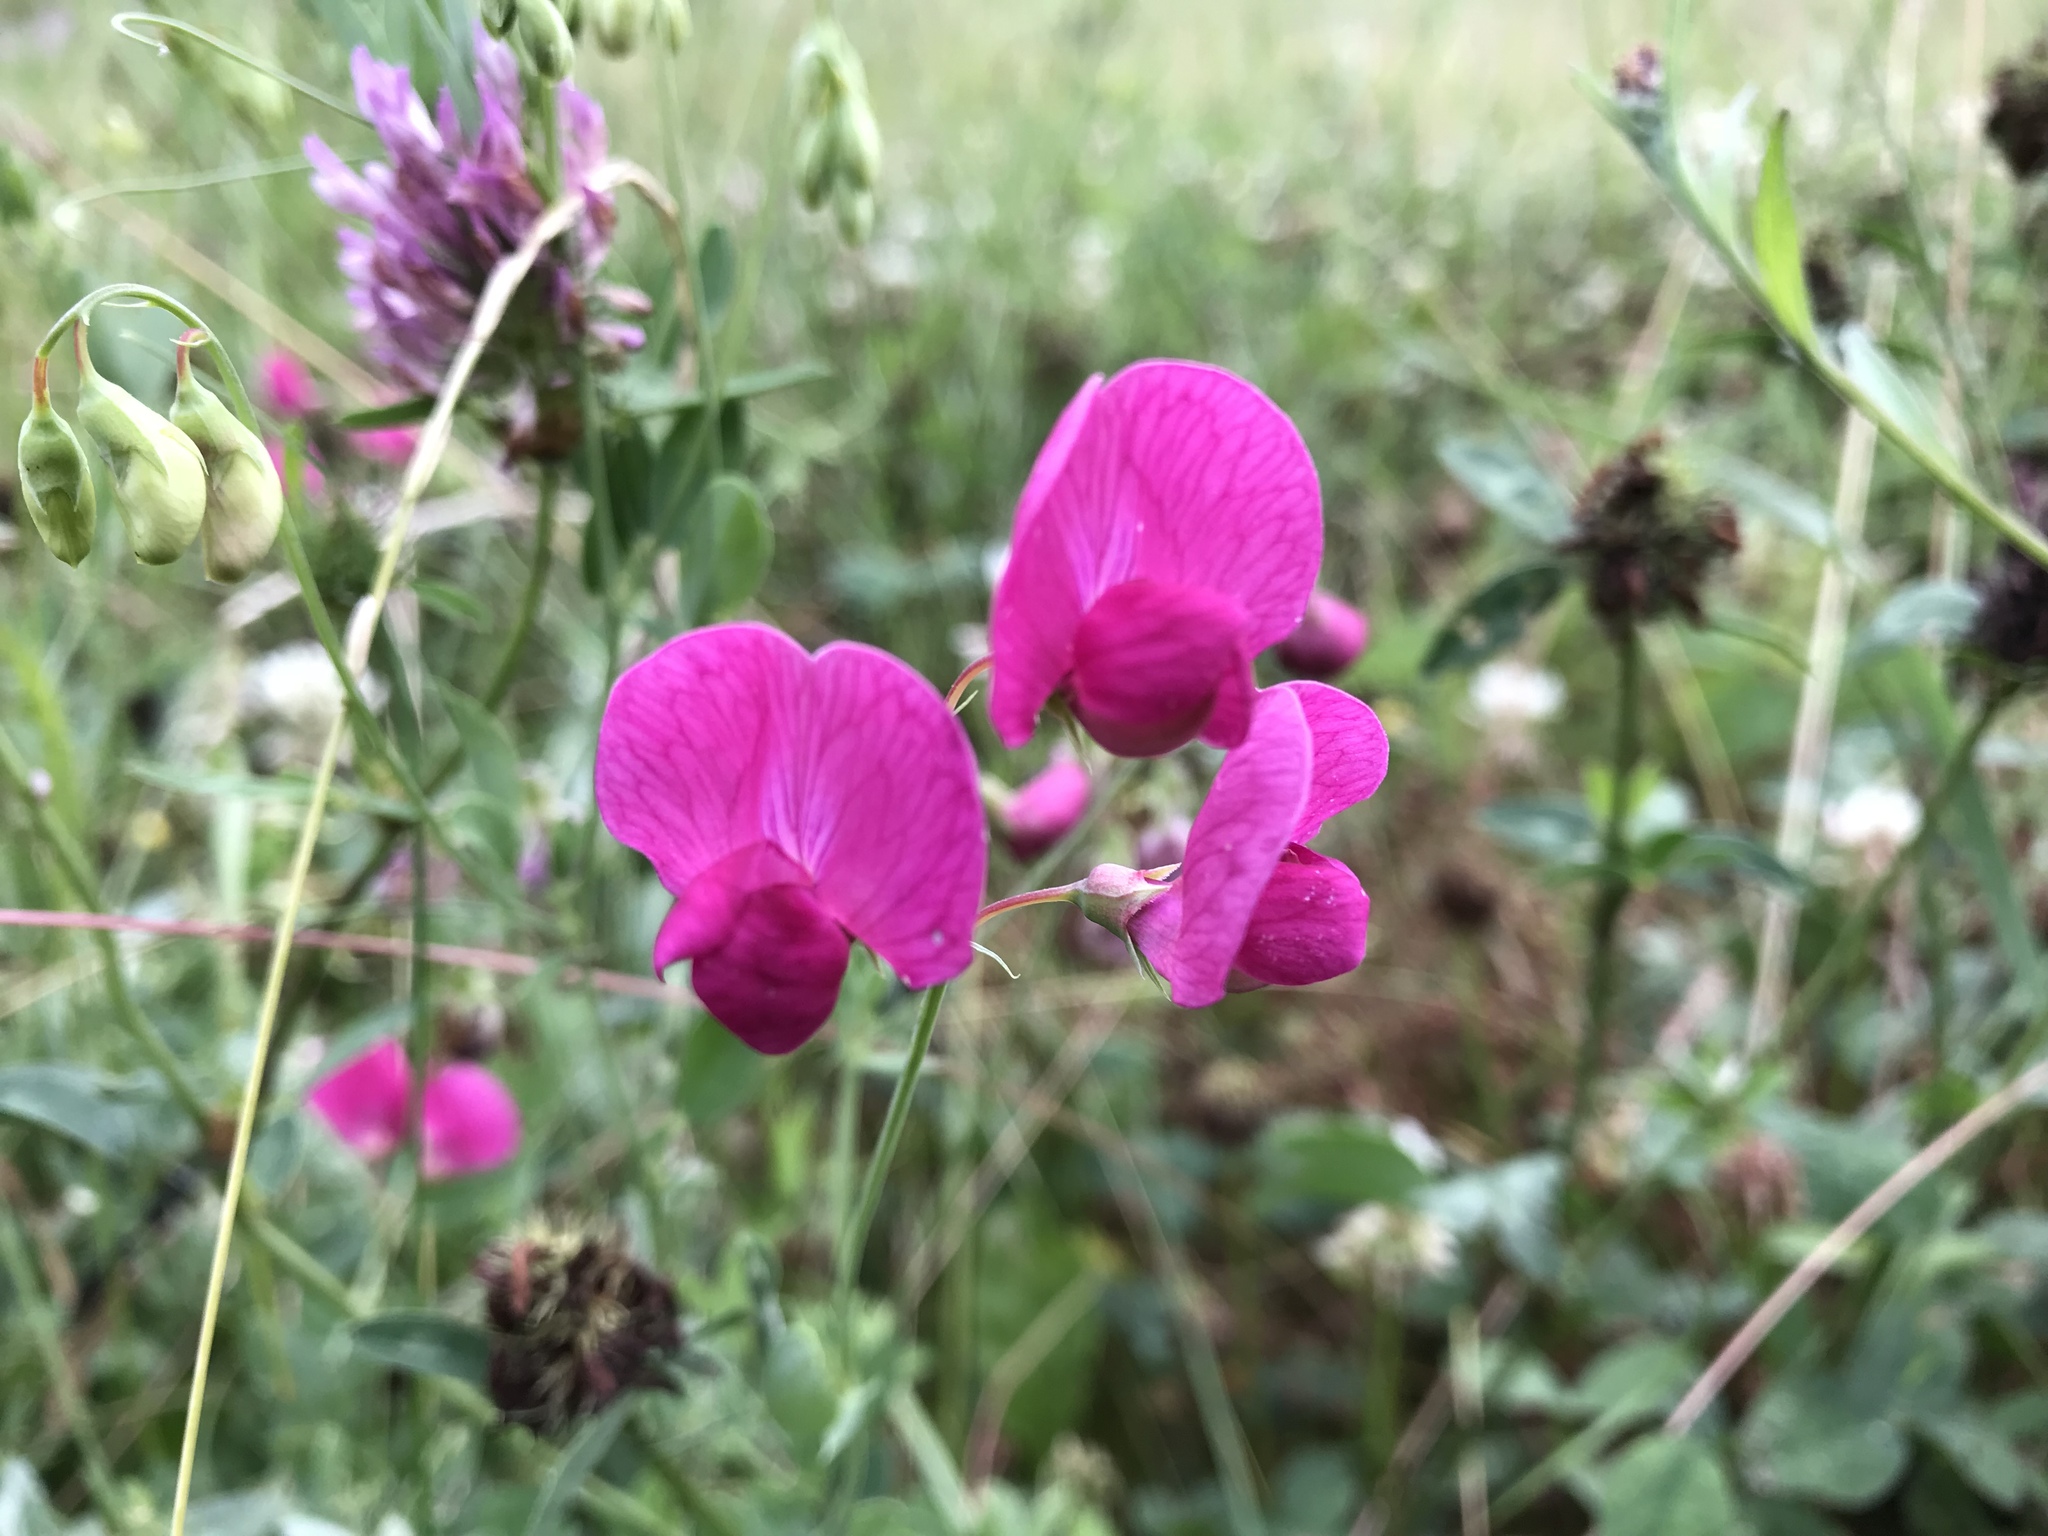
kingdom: Plantae
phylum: Tracheophyta
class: Magnoliopsida
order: Fabales
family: Fabaceae
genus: Lathyrus
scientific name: Lathyrus tuberosus
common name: Tuberous pea
